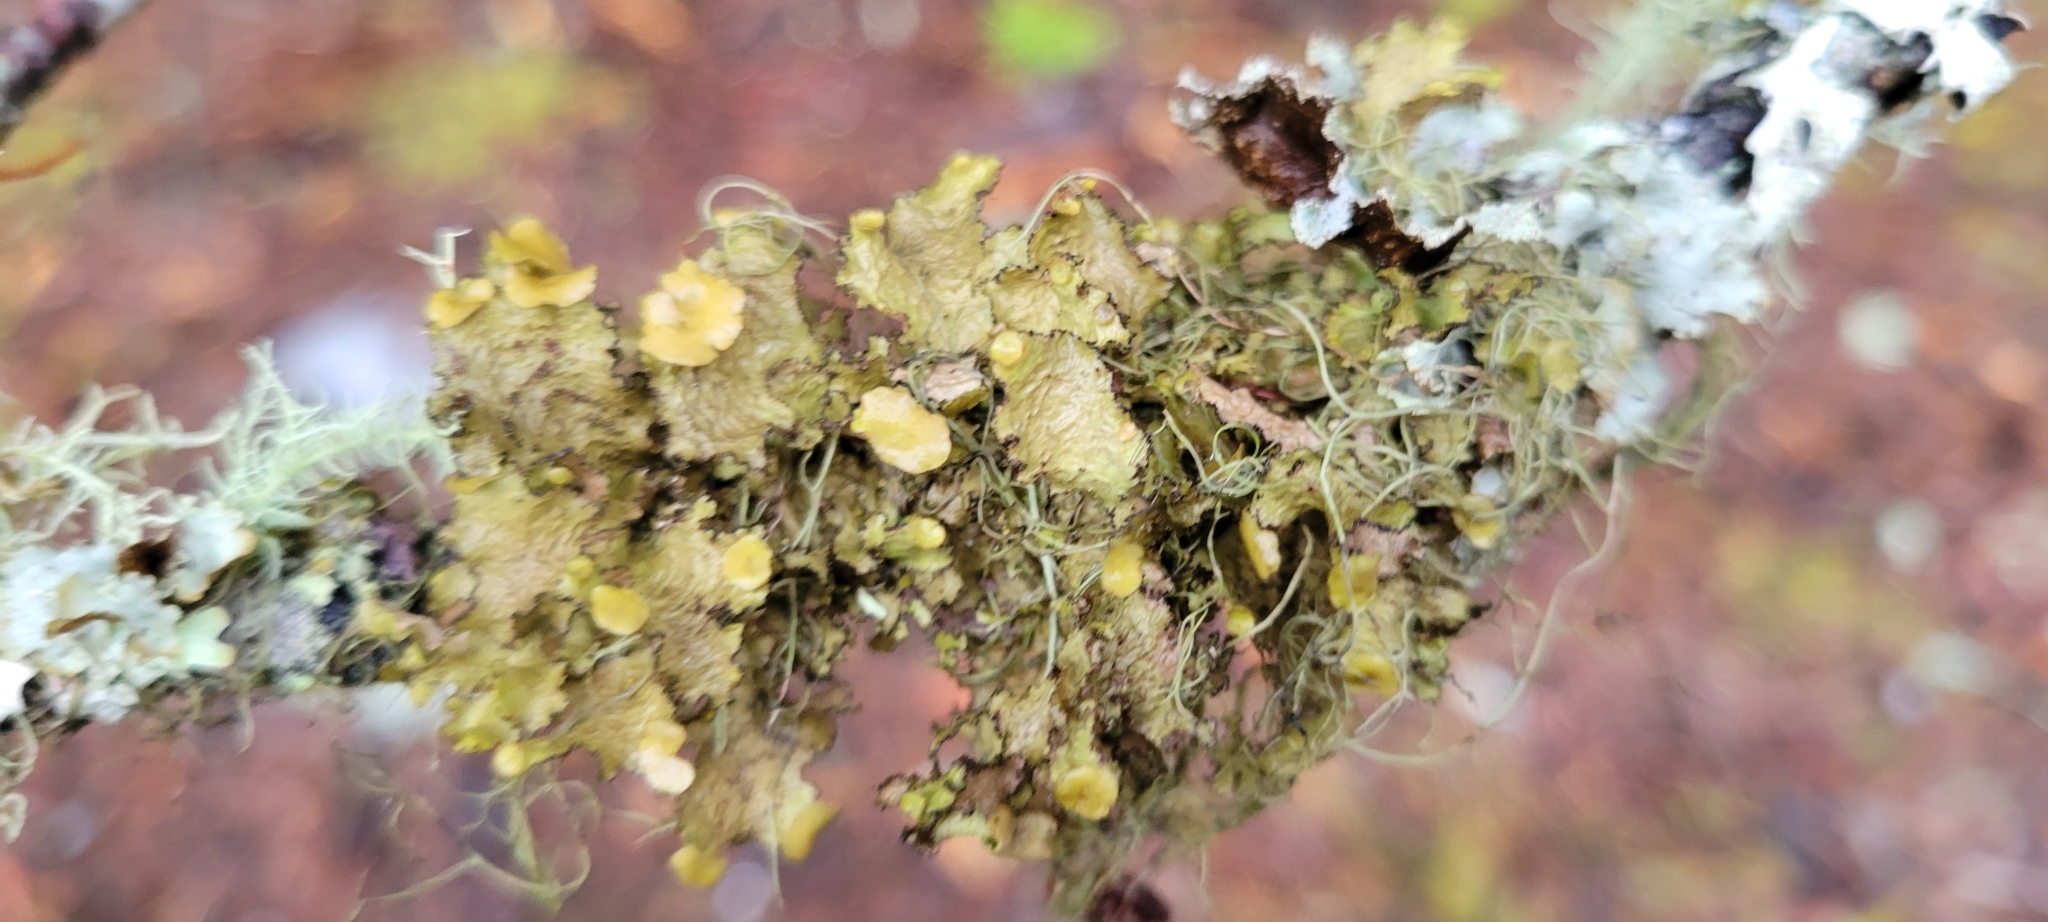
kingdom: Fungi
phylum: Ascomycota
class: Lecanoromycetes
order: Lecanorales
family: Parmeliaceae
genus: Nephromopsis
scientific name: Nephromopsis orbata
